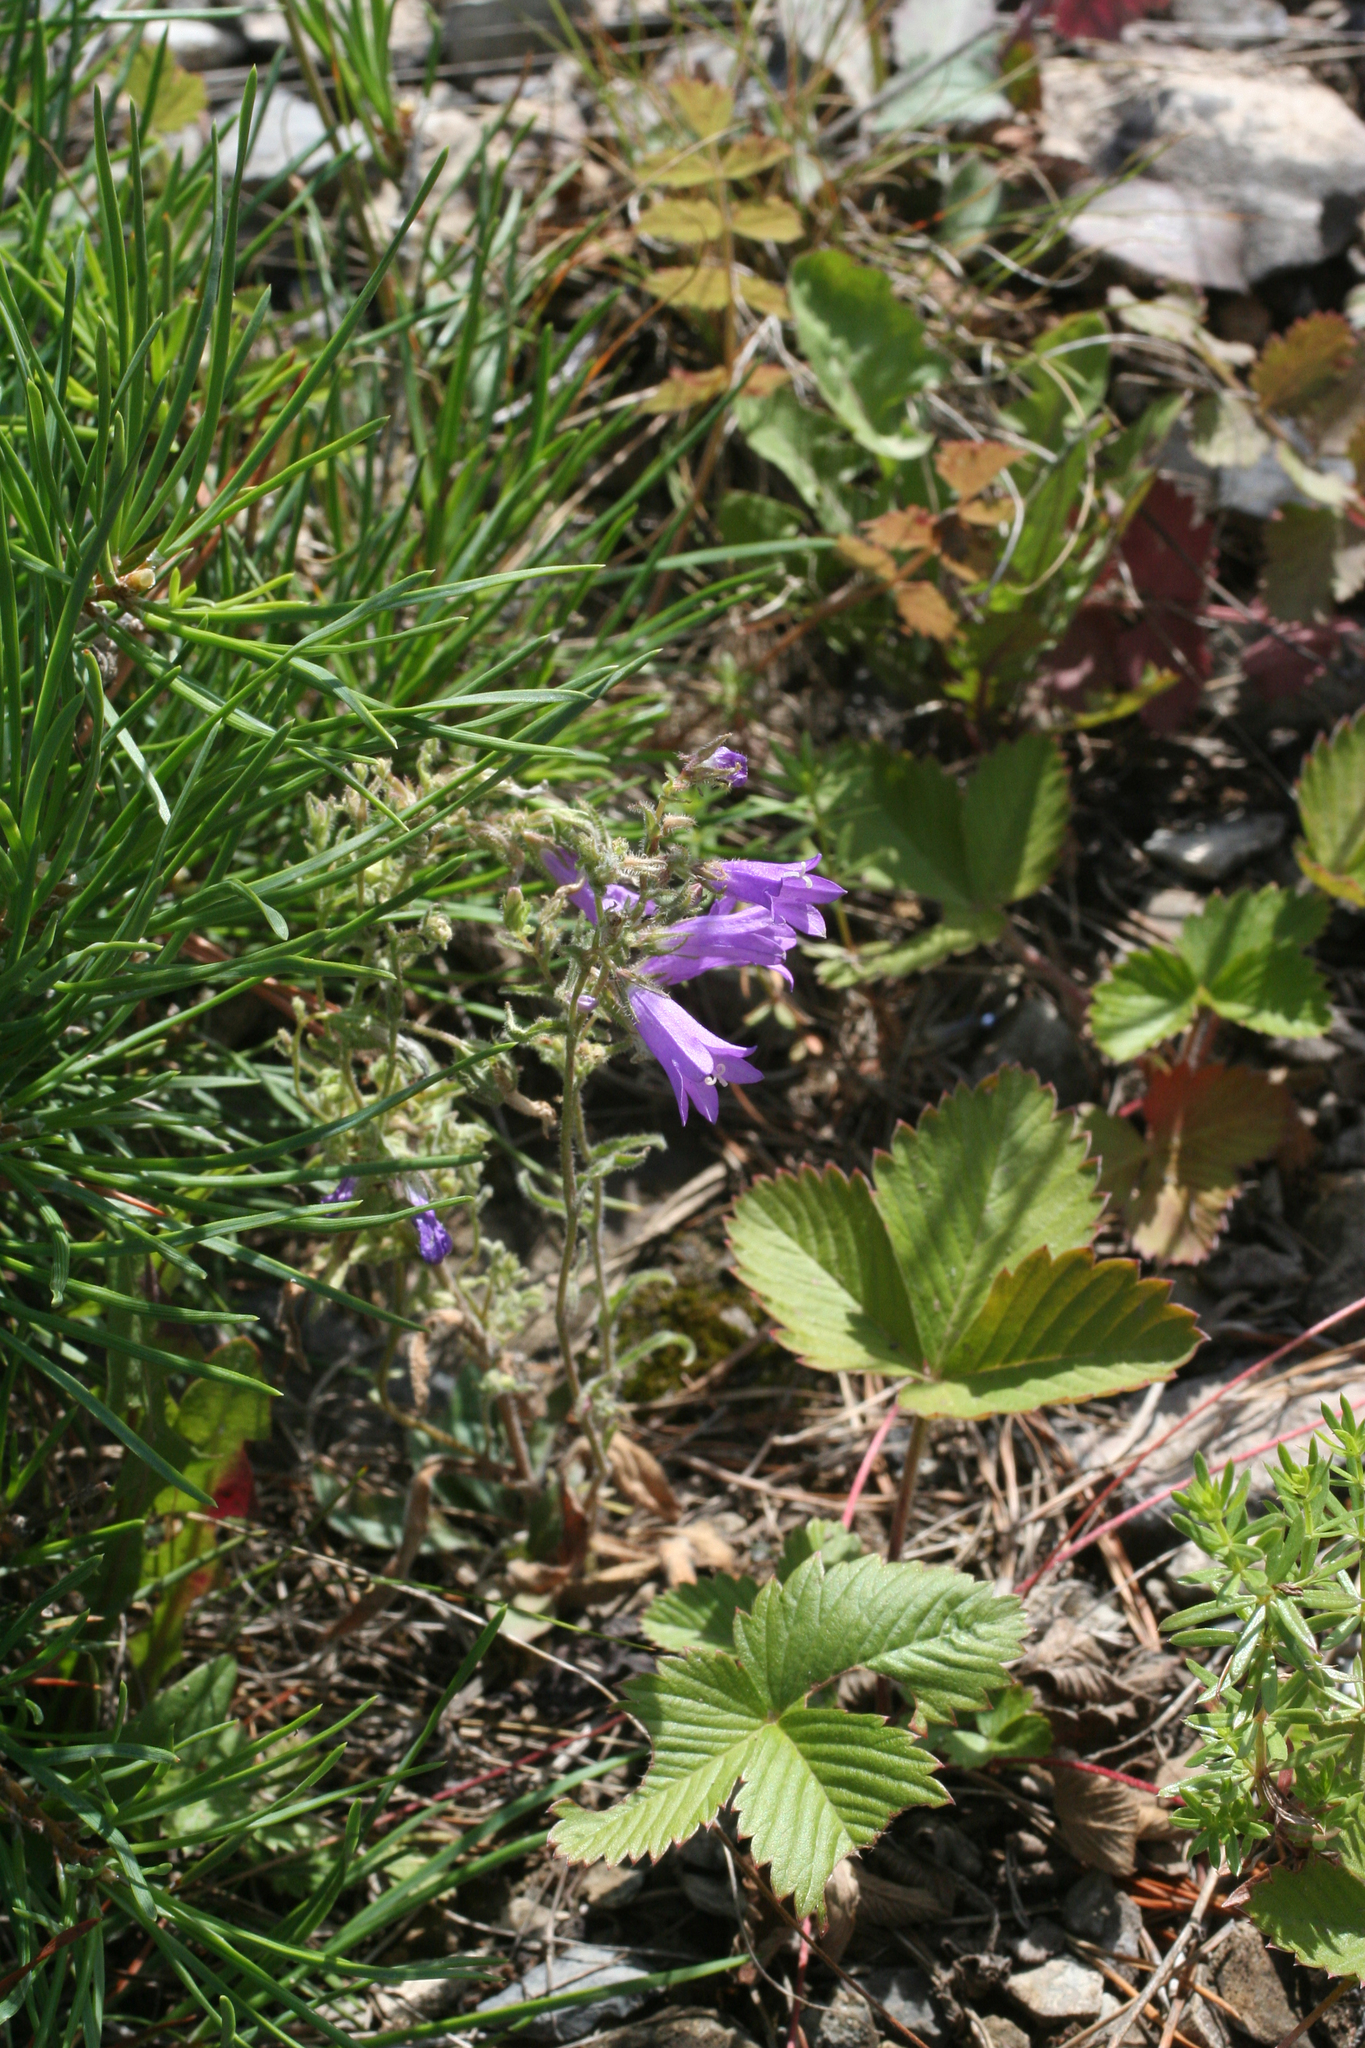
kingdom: Plantae
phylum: Tracheophyta
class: Magnoliopsida
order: Asterales
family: Campanulaceae
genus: Campanula
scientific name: Campanula sibirica
